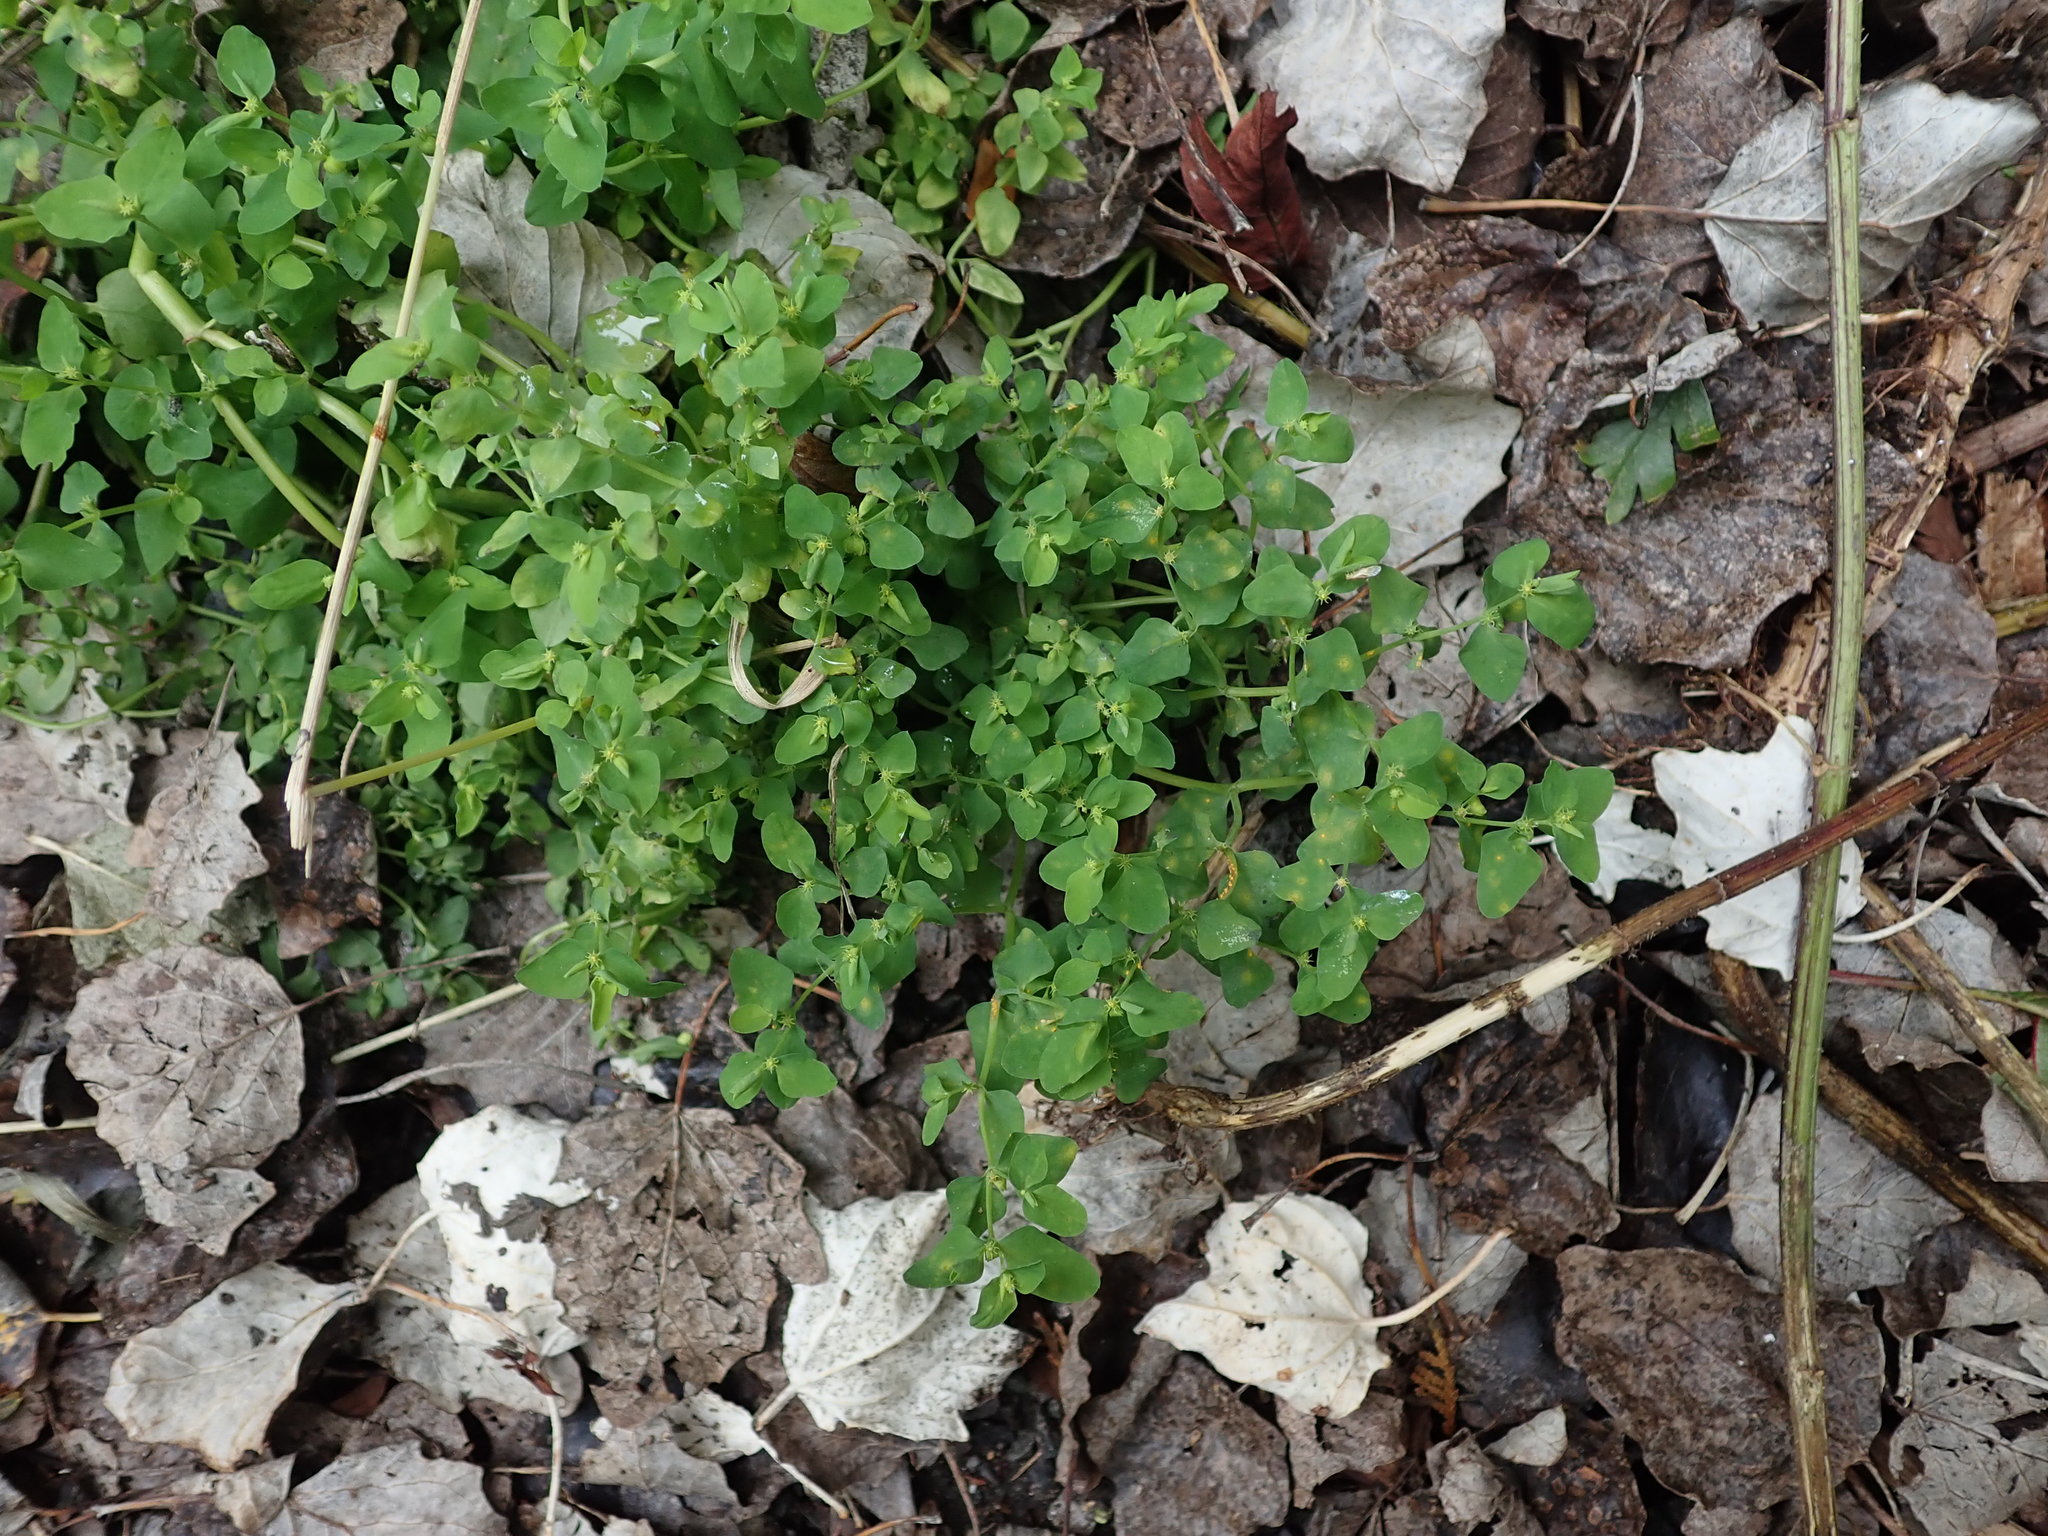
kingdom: Plantae
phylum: Tracheophyta
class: Magnoliopsida
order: Malpighiales
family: Euphorbiaceae
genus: Euphorbia
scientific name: Euphorbia peplus
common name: Petty spurge
